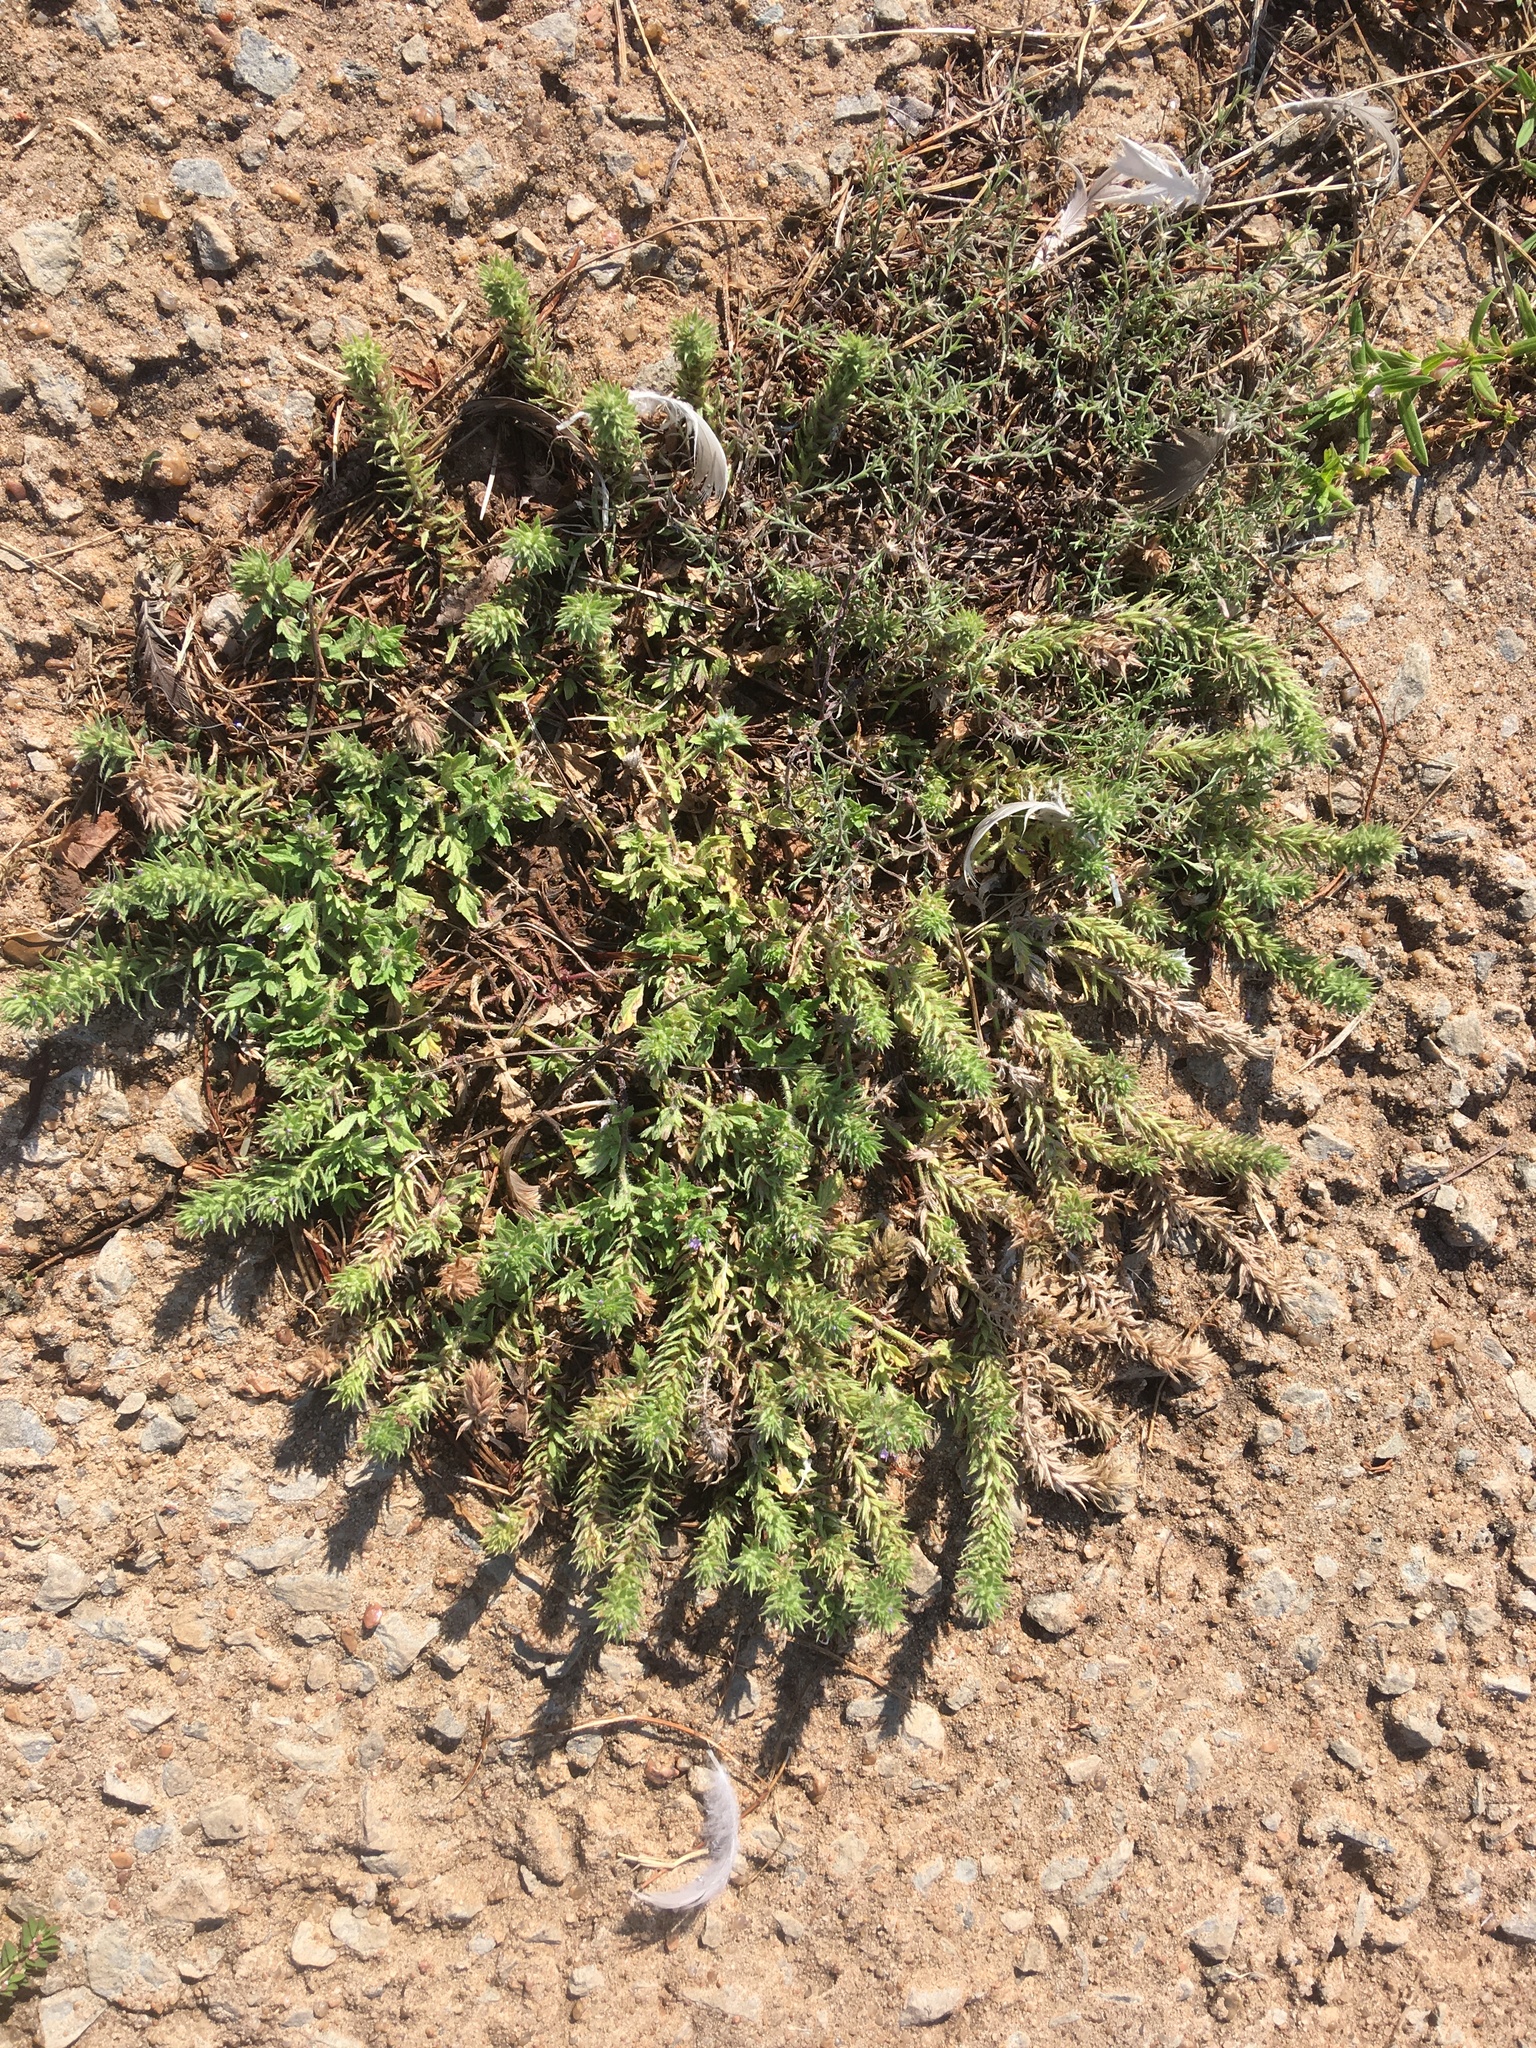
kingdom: Plantae
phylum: Tracheophyta
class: Magnoliopsida
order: Lamiales
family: Verbenaceae
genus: Verbena
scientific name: Verbena bracteata
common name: Bracted vervain
